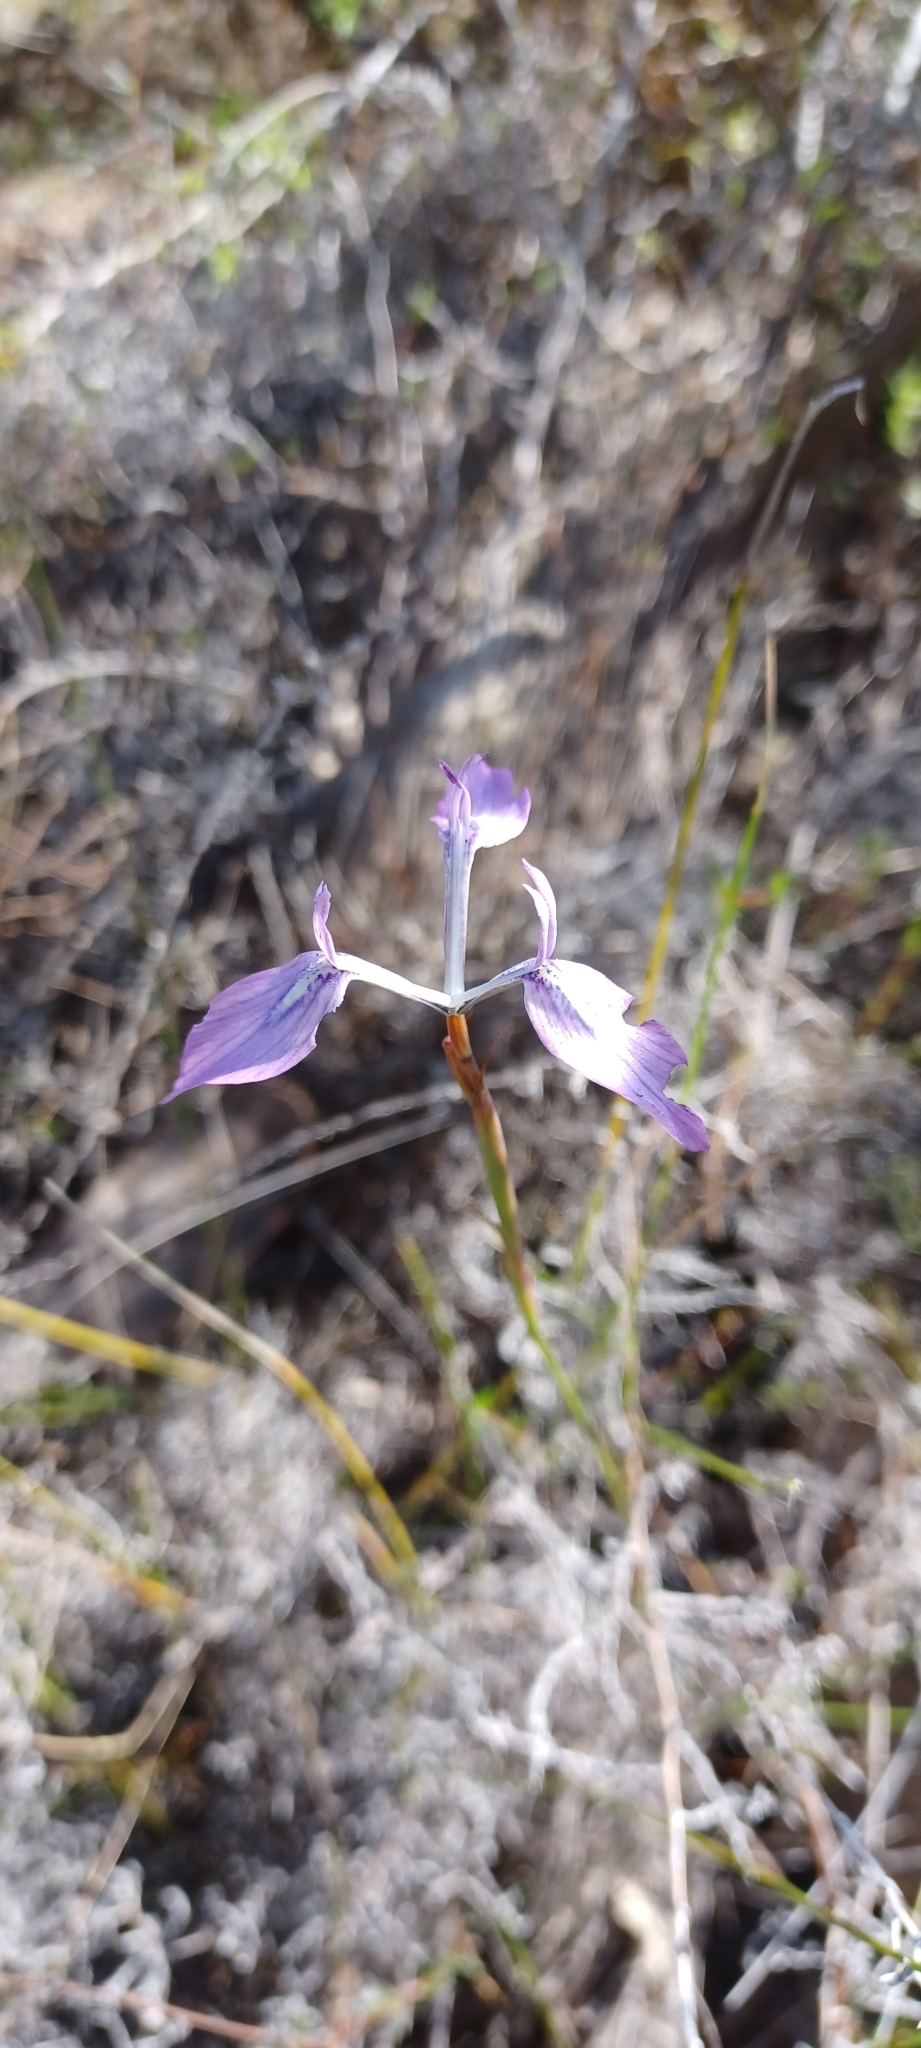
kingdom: Plantae
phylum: Tracheophyta
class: Liliopsida
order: Asparagales
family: Iridaceae
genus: Moraea
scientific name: Moraea tripetala
